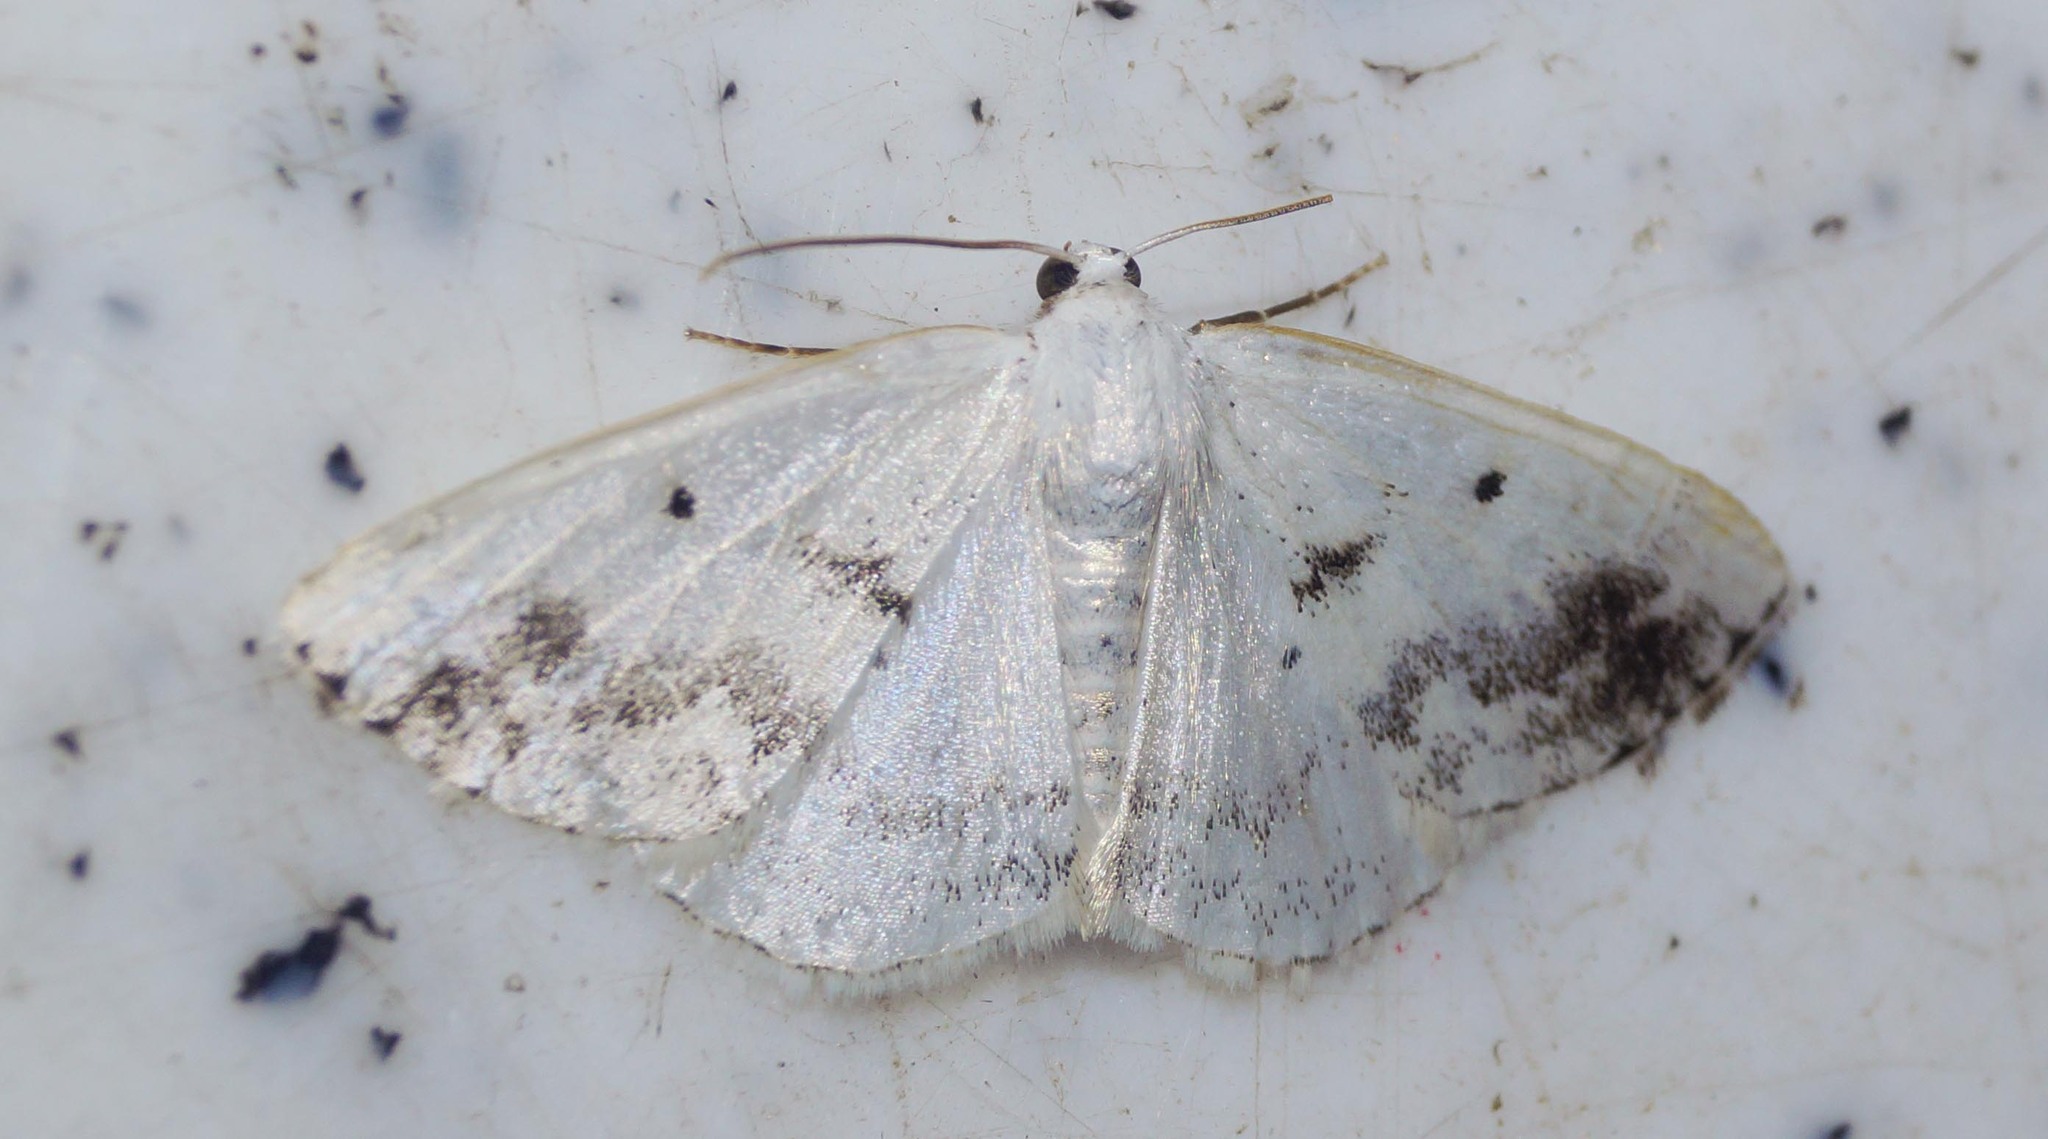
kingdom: Animalia
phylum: Arthropoda
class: Insecta
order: Lepidoptera
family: Geometridae
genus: Lomographa
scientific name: Lomographa temerata
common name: Clouded silver
